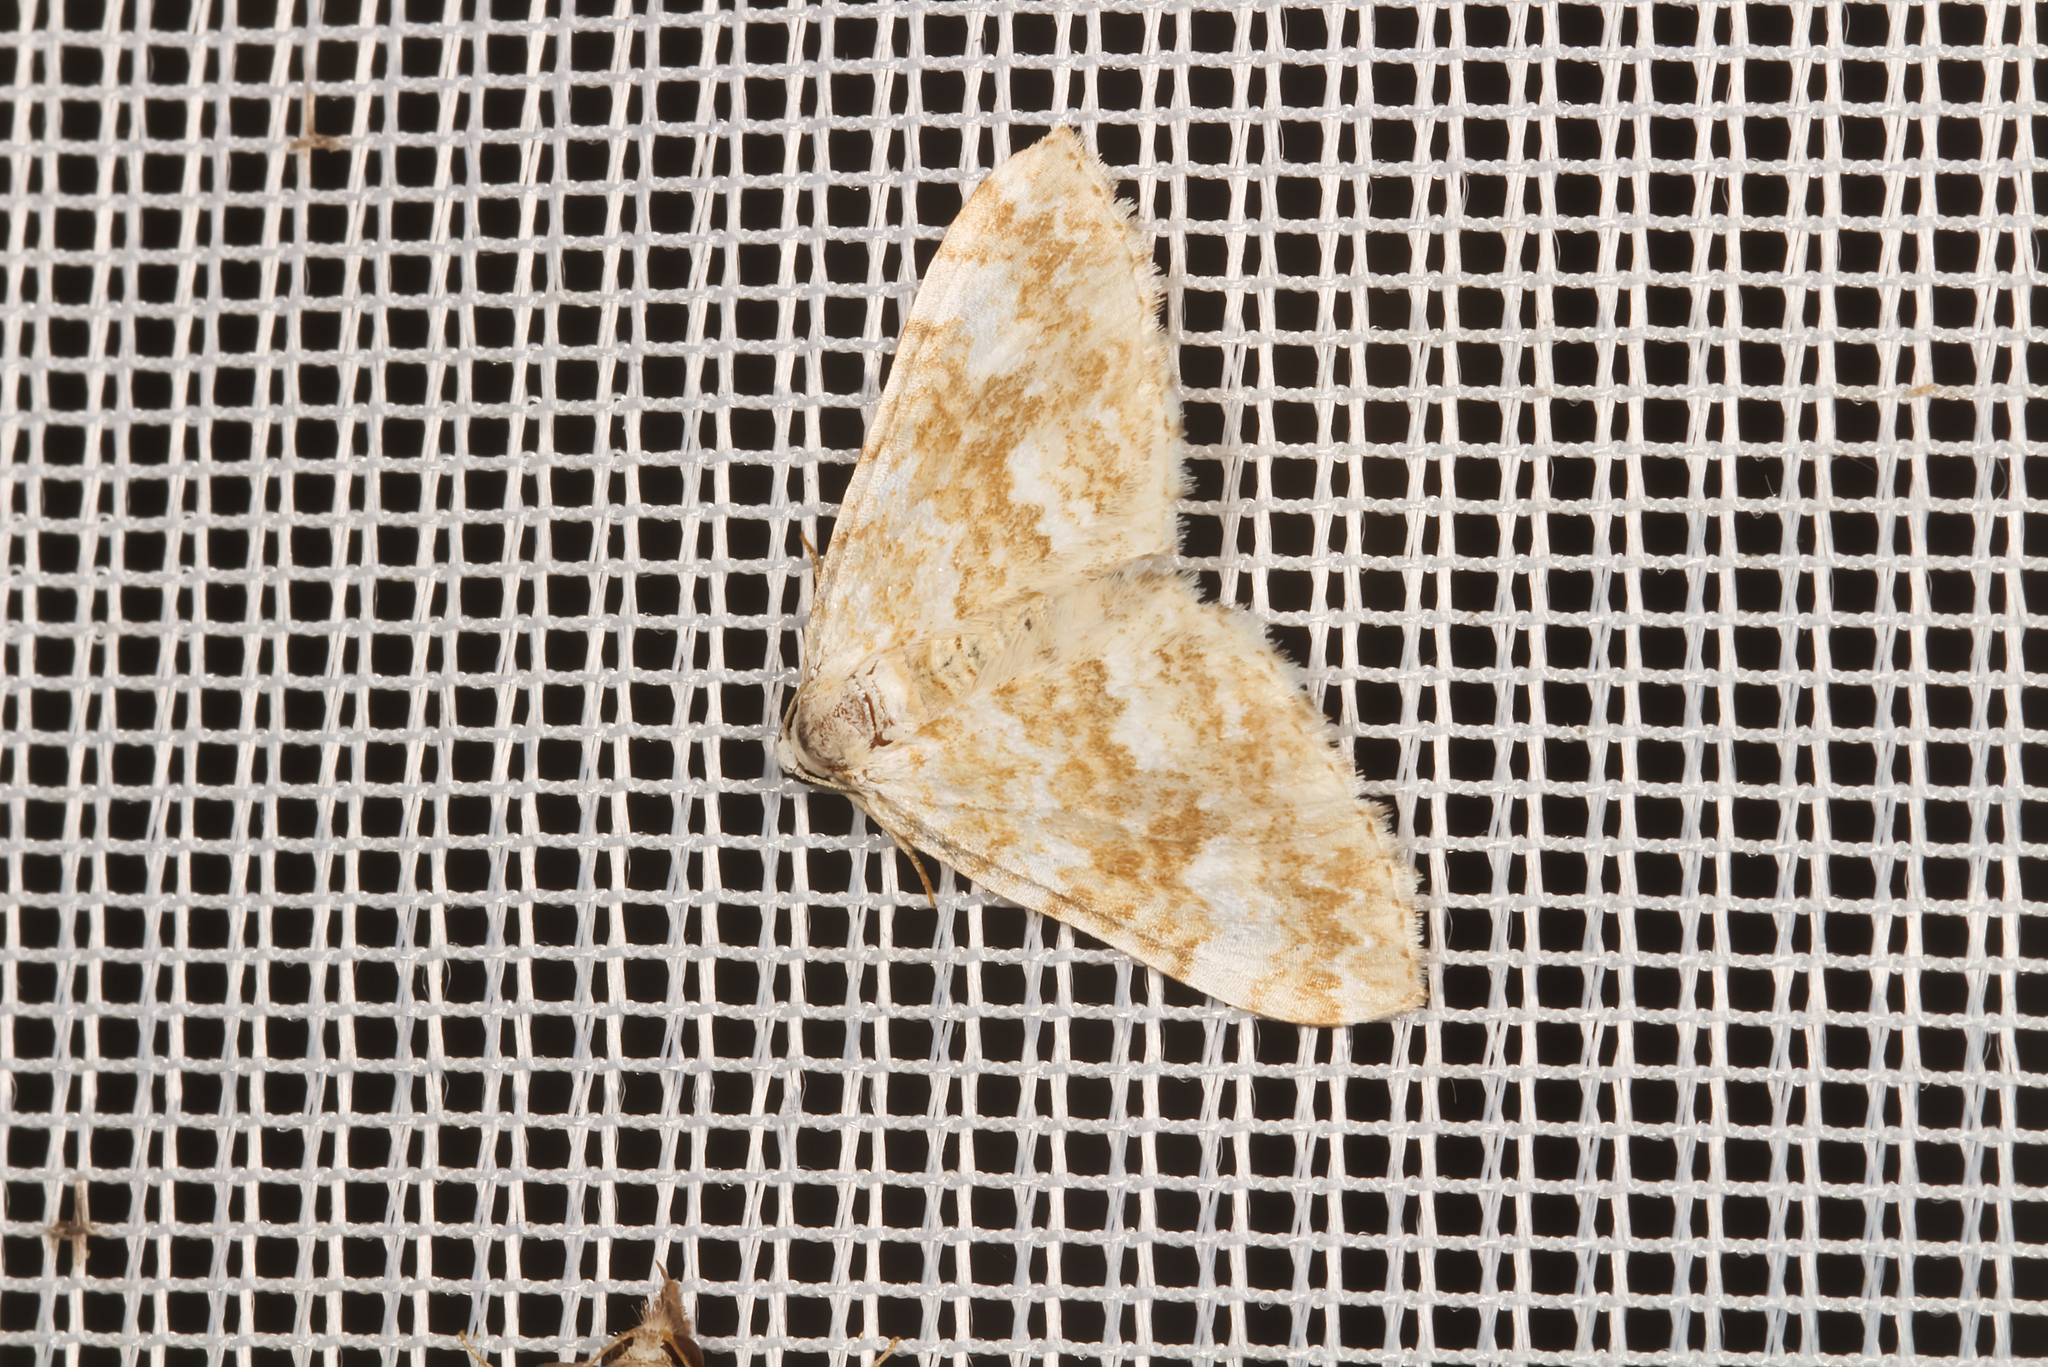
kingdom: Animalia
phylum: Arthropoda
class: Insecta
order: Lepidoptera
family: Geometridae
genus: Perizoma
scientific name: Perizoma flavofasciata
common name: Sandy carpet
